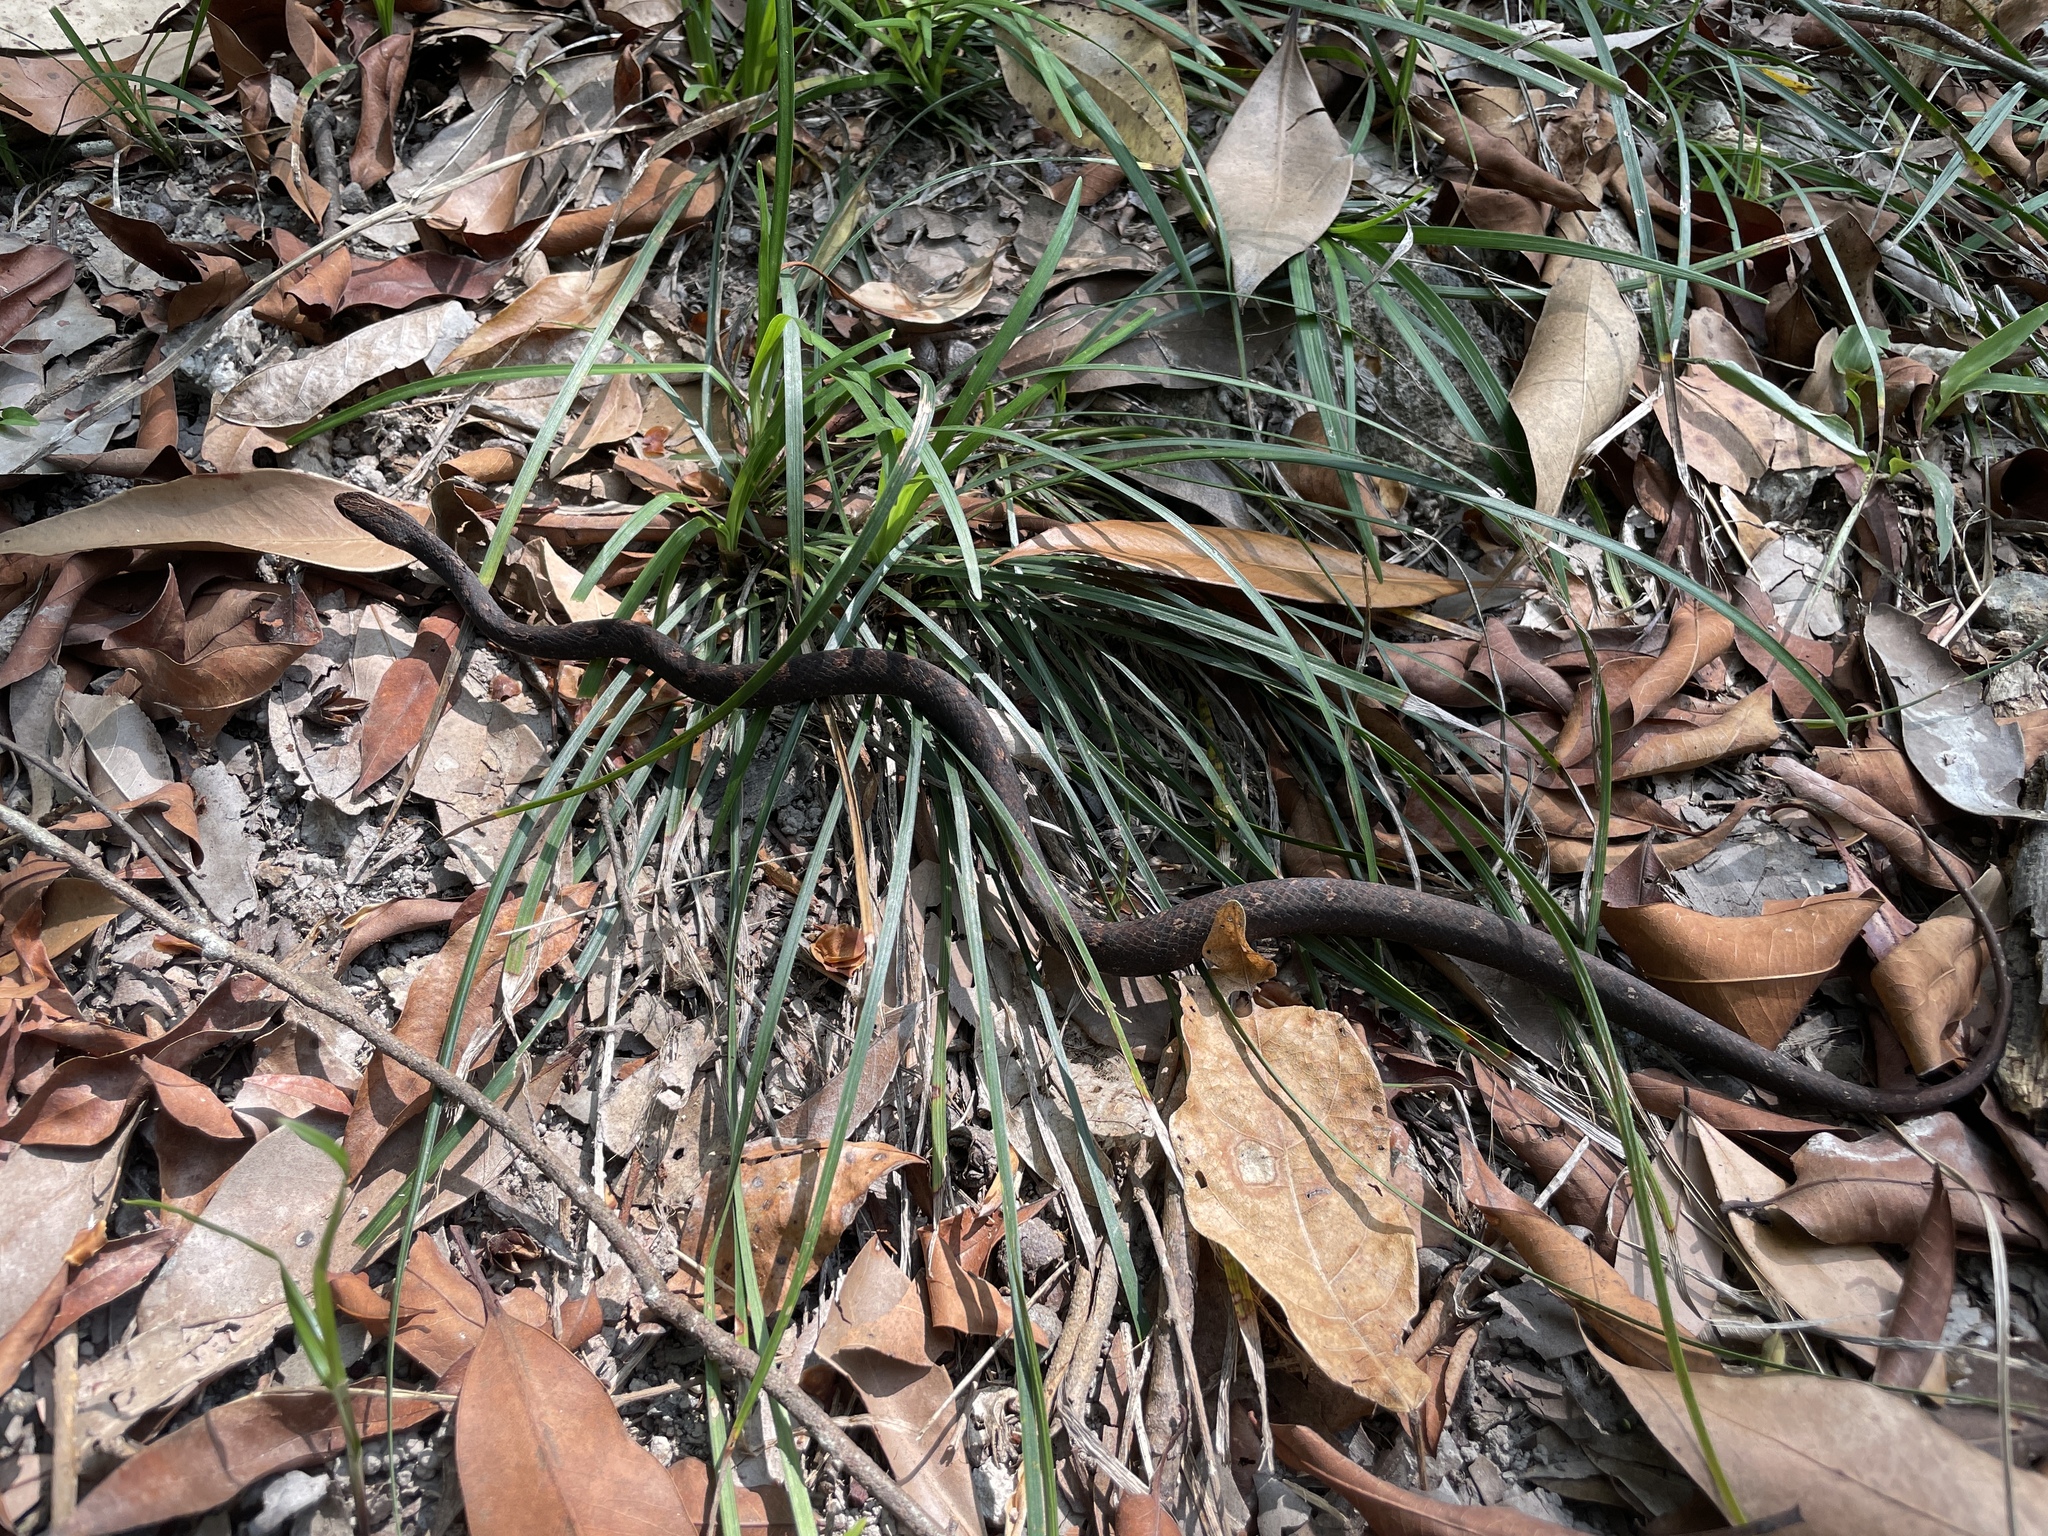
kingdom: Animalia
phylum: Chordata
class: Squamata
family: Pseudaspididae
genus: Psammodynastes
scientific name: Psammodynastes pulverulentus
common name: Common mock viper
